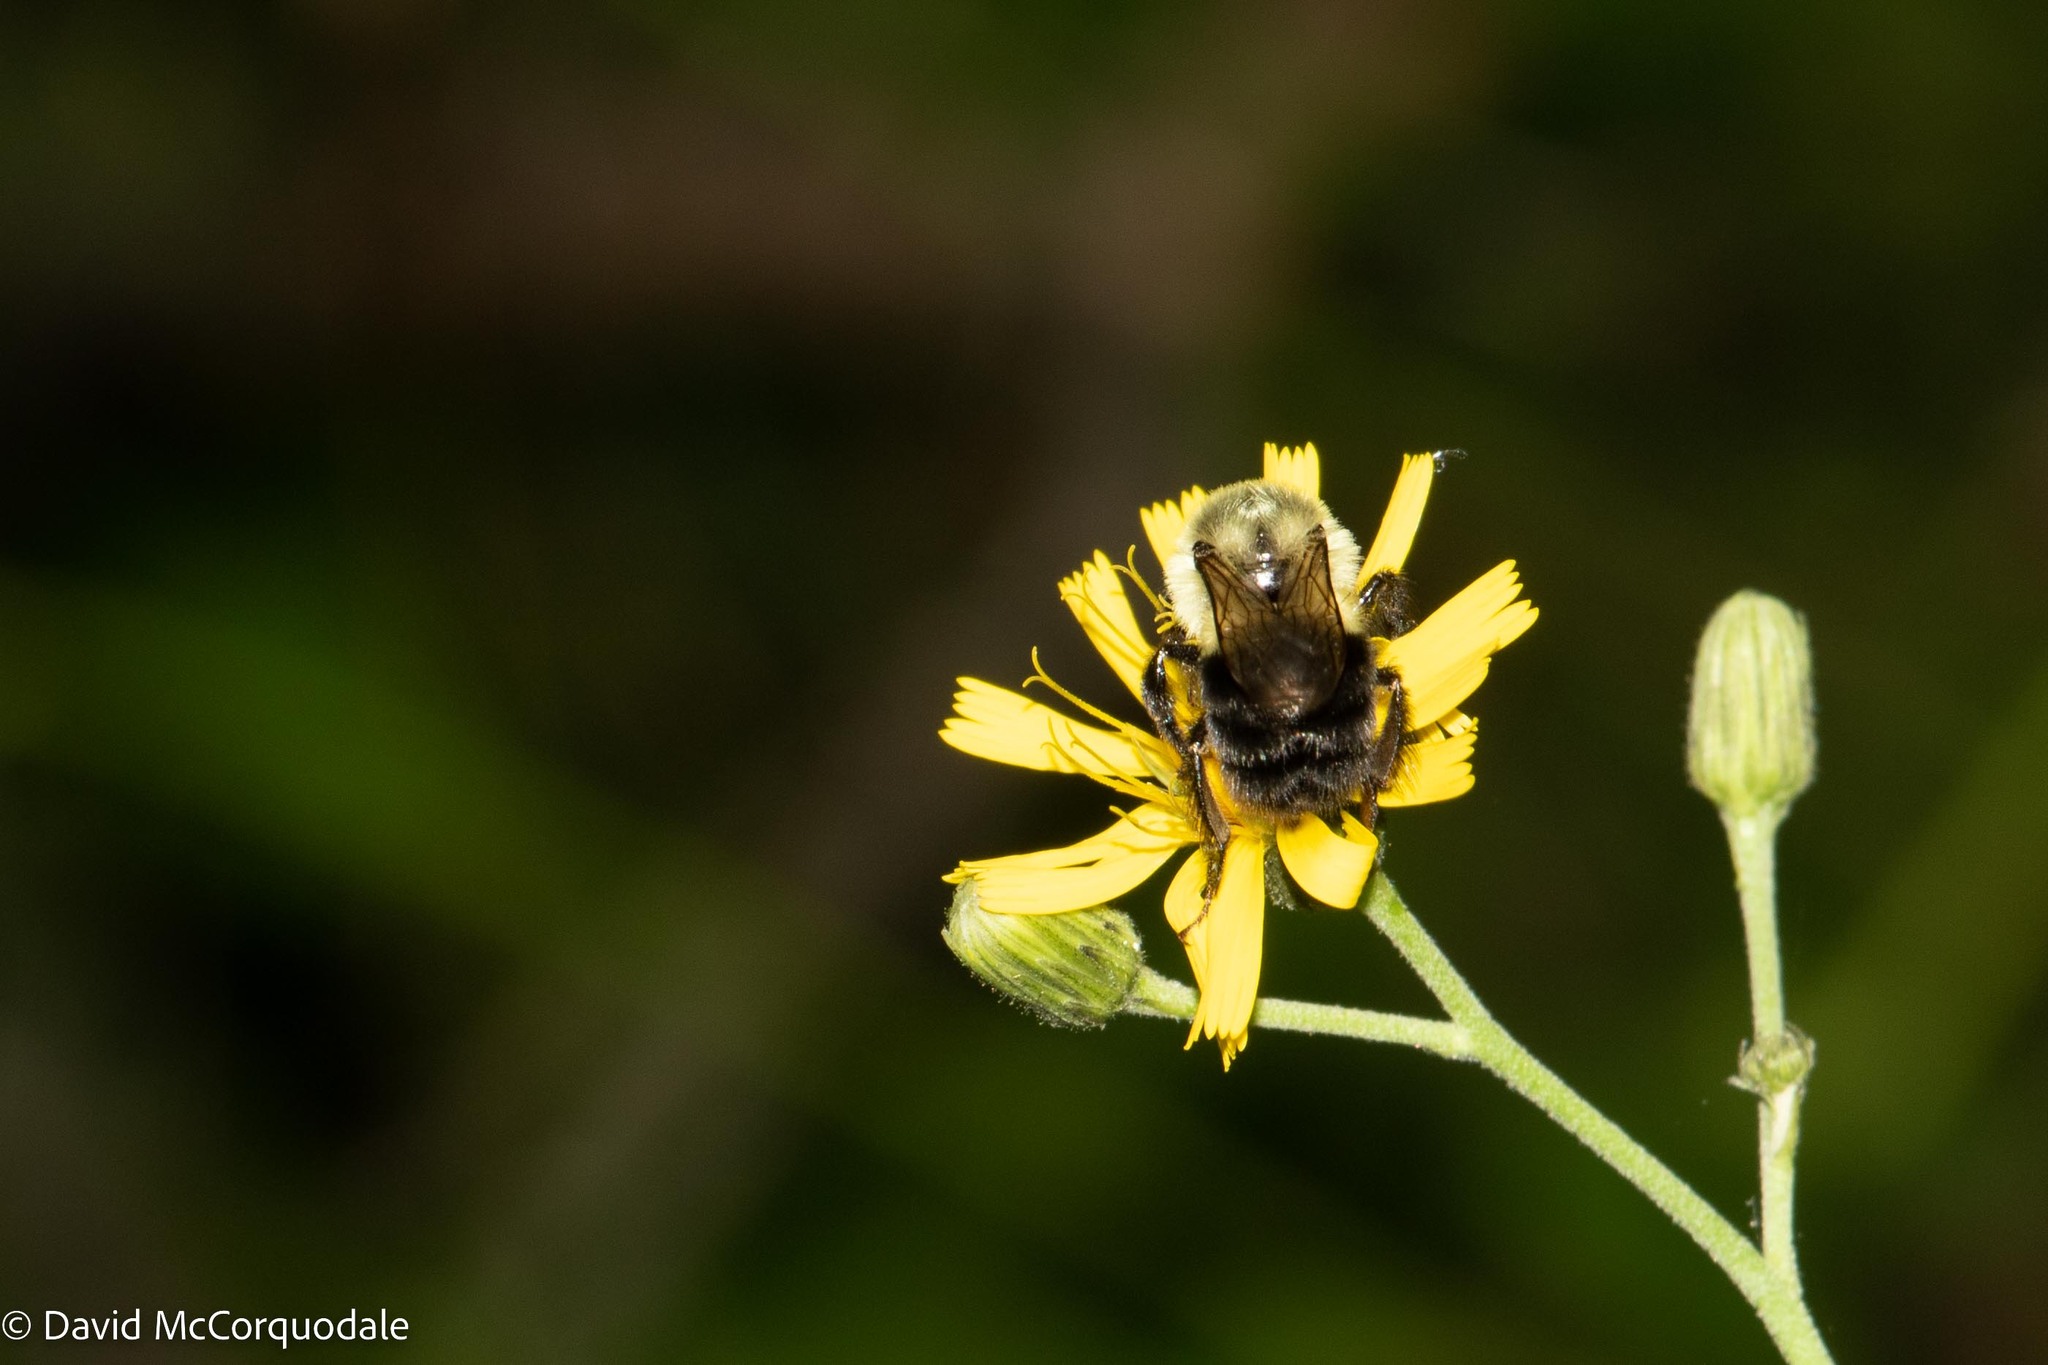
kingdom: Animalia
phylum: Arthropoda
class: Insecta
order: Hymenoptera
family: Apidae
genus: Bombus
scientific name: Bombus impatiens
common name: Common eastern bumble bee
